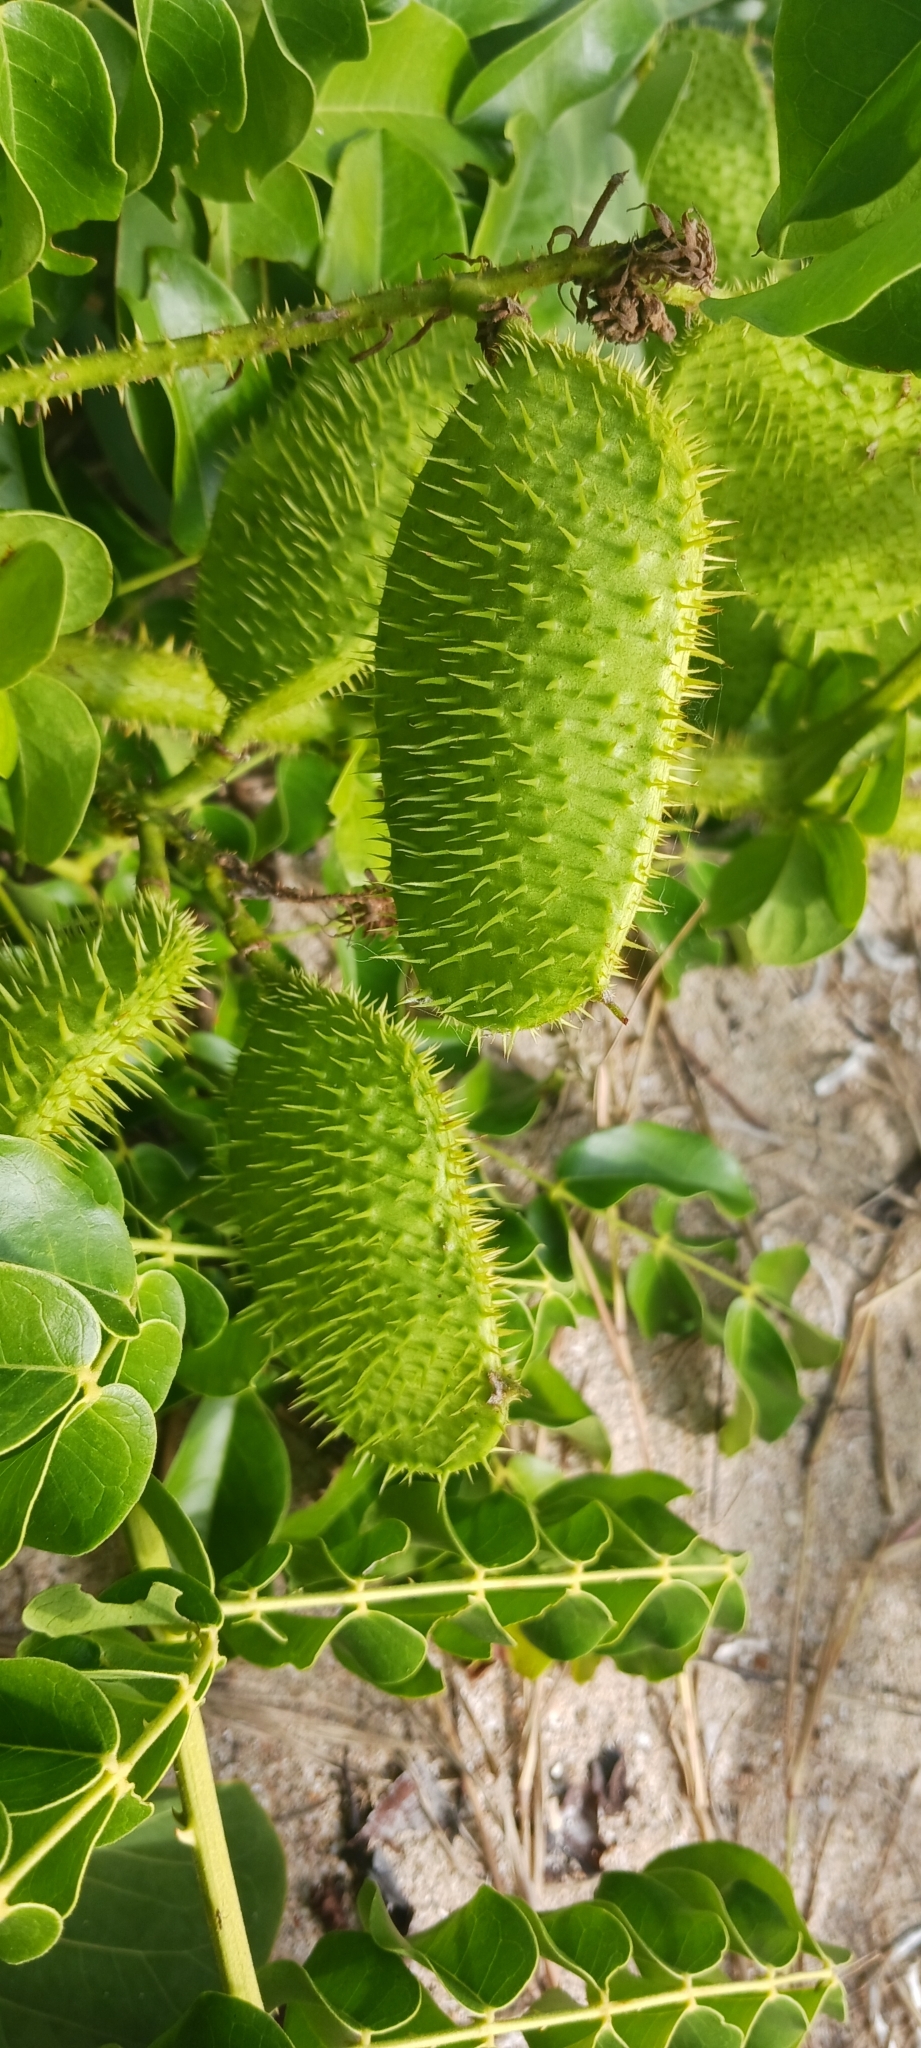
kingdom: Plantae
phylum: Tracheophyta
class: Magnoliopsida
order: Fabales
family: Fabaceae
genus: Guilandina
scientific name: Guilandina bonduc
